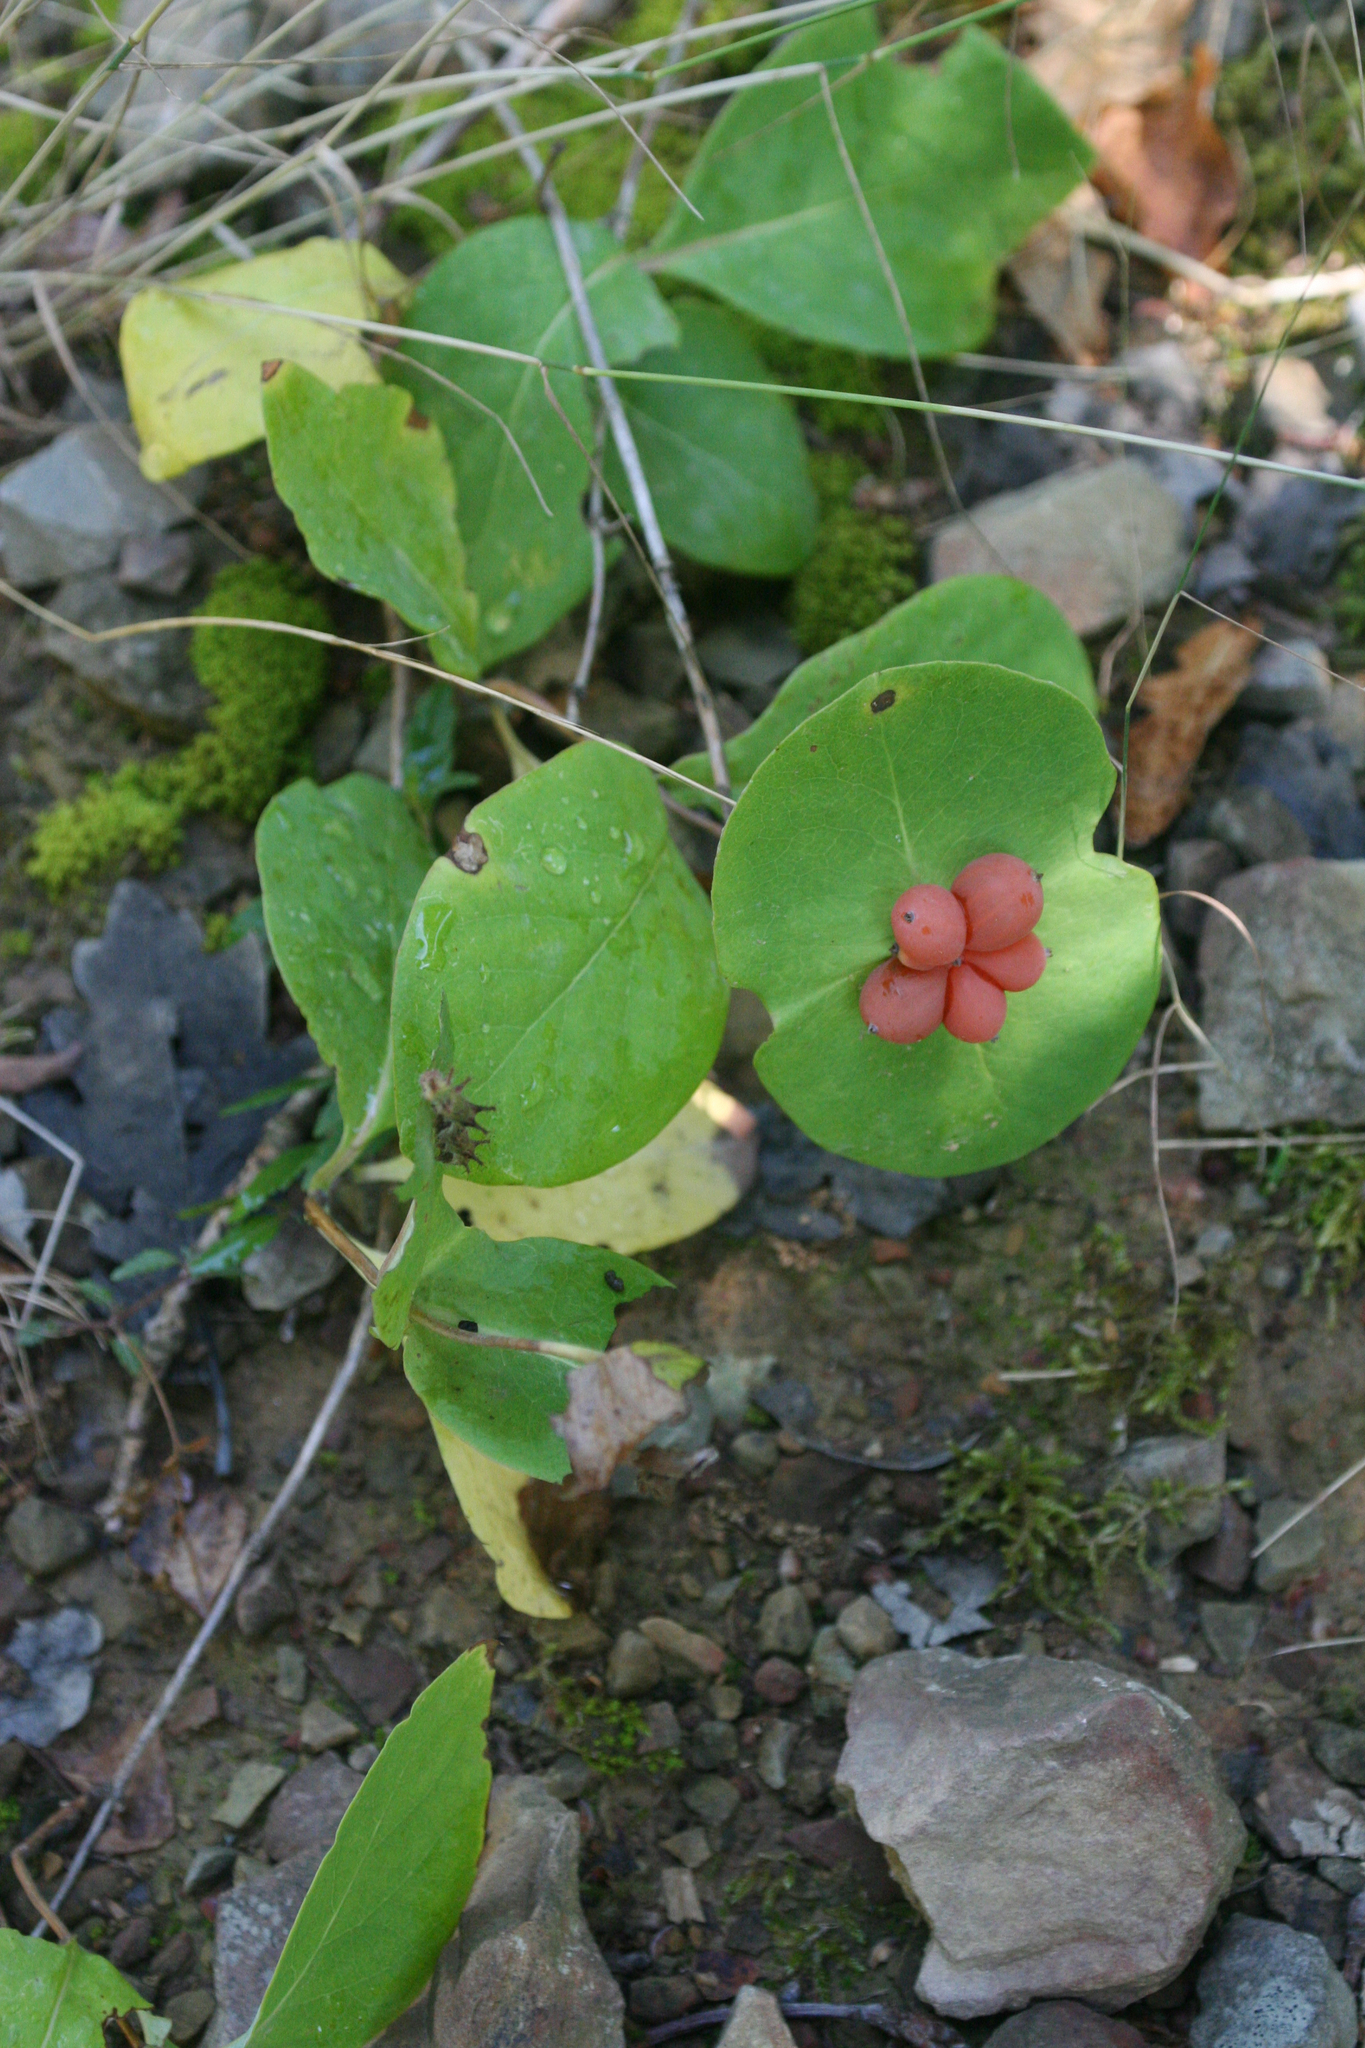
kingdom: Plantae
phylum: Tracheophyta
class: Magnoliopsida
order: Dipsacales
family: Caprifoliaceae
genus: Lonicera
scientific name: Lonicera caprifolium
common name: Perfoliate honeysuckle
